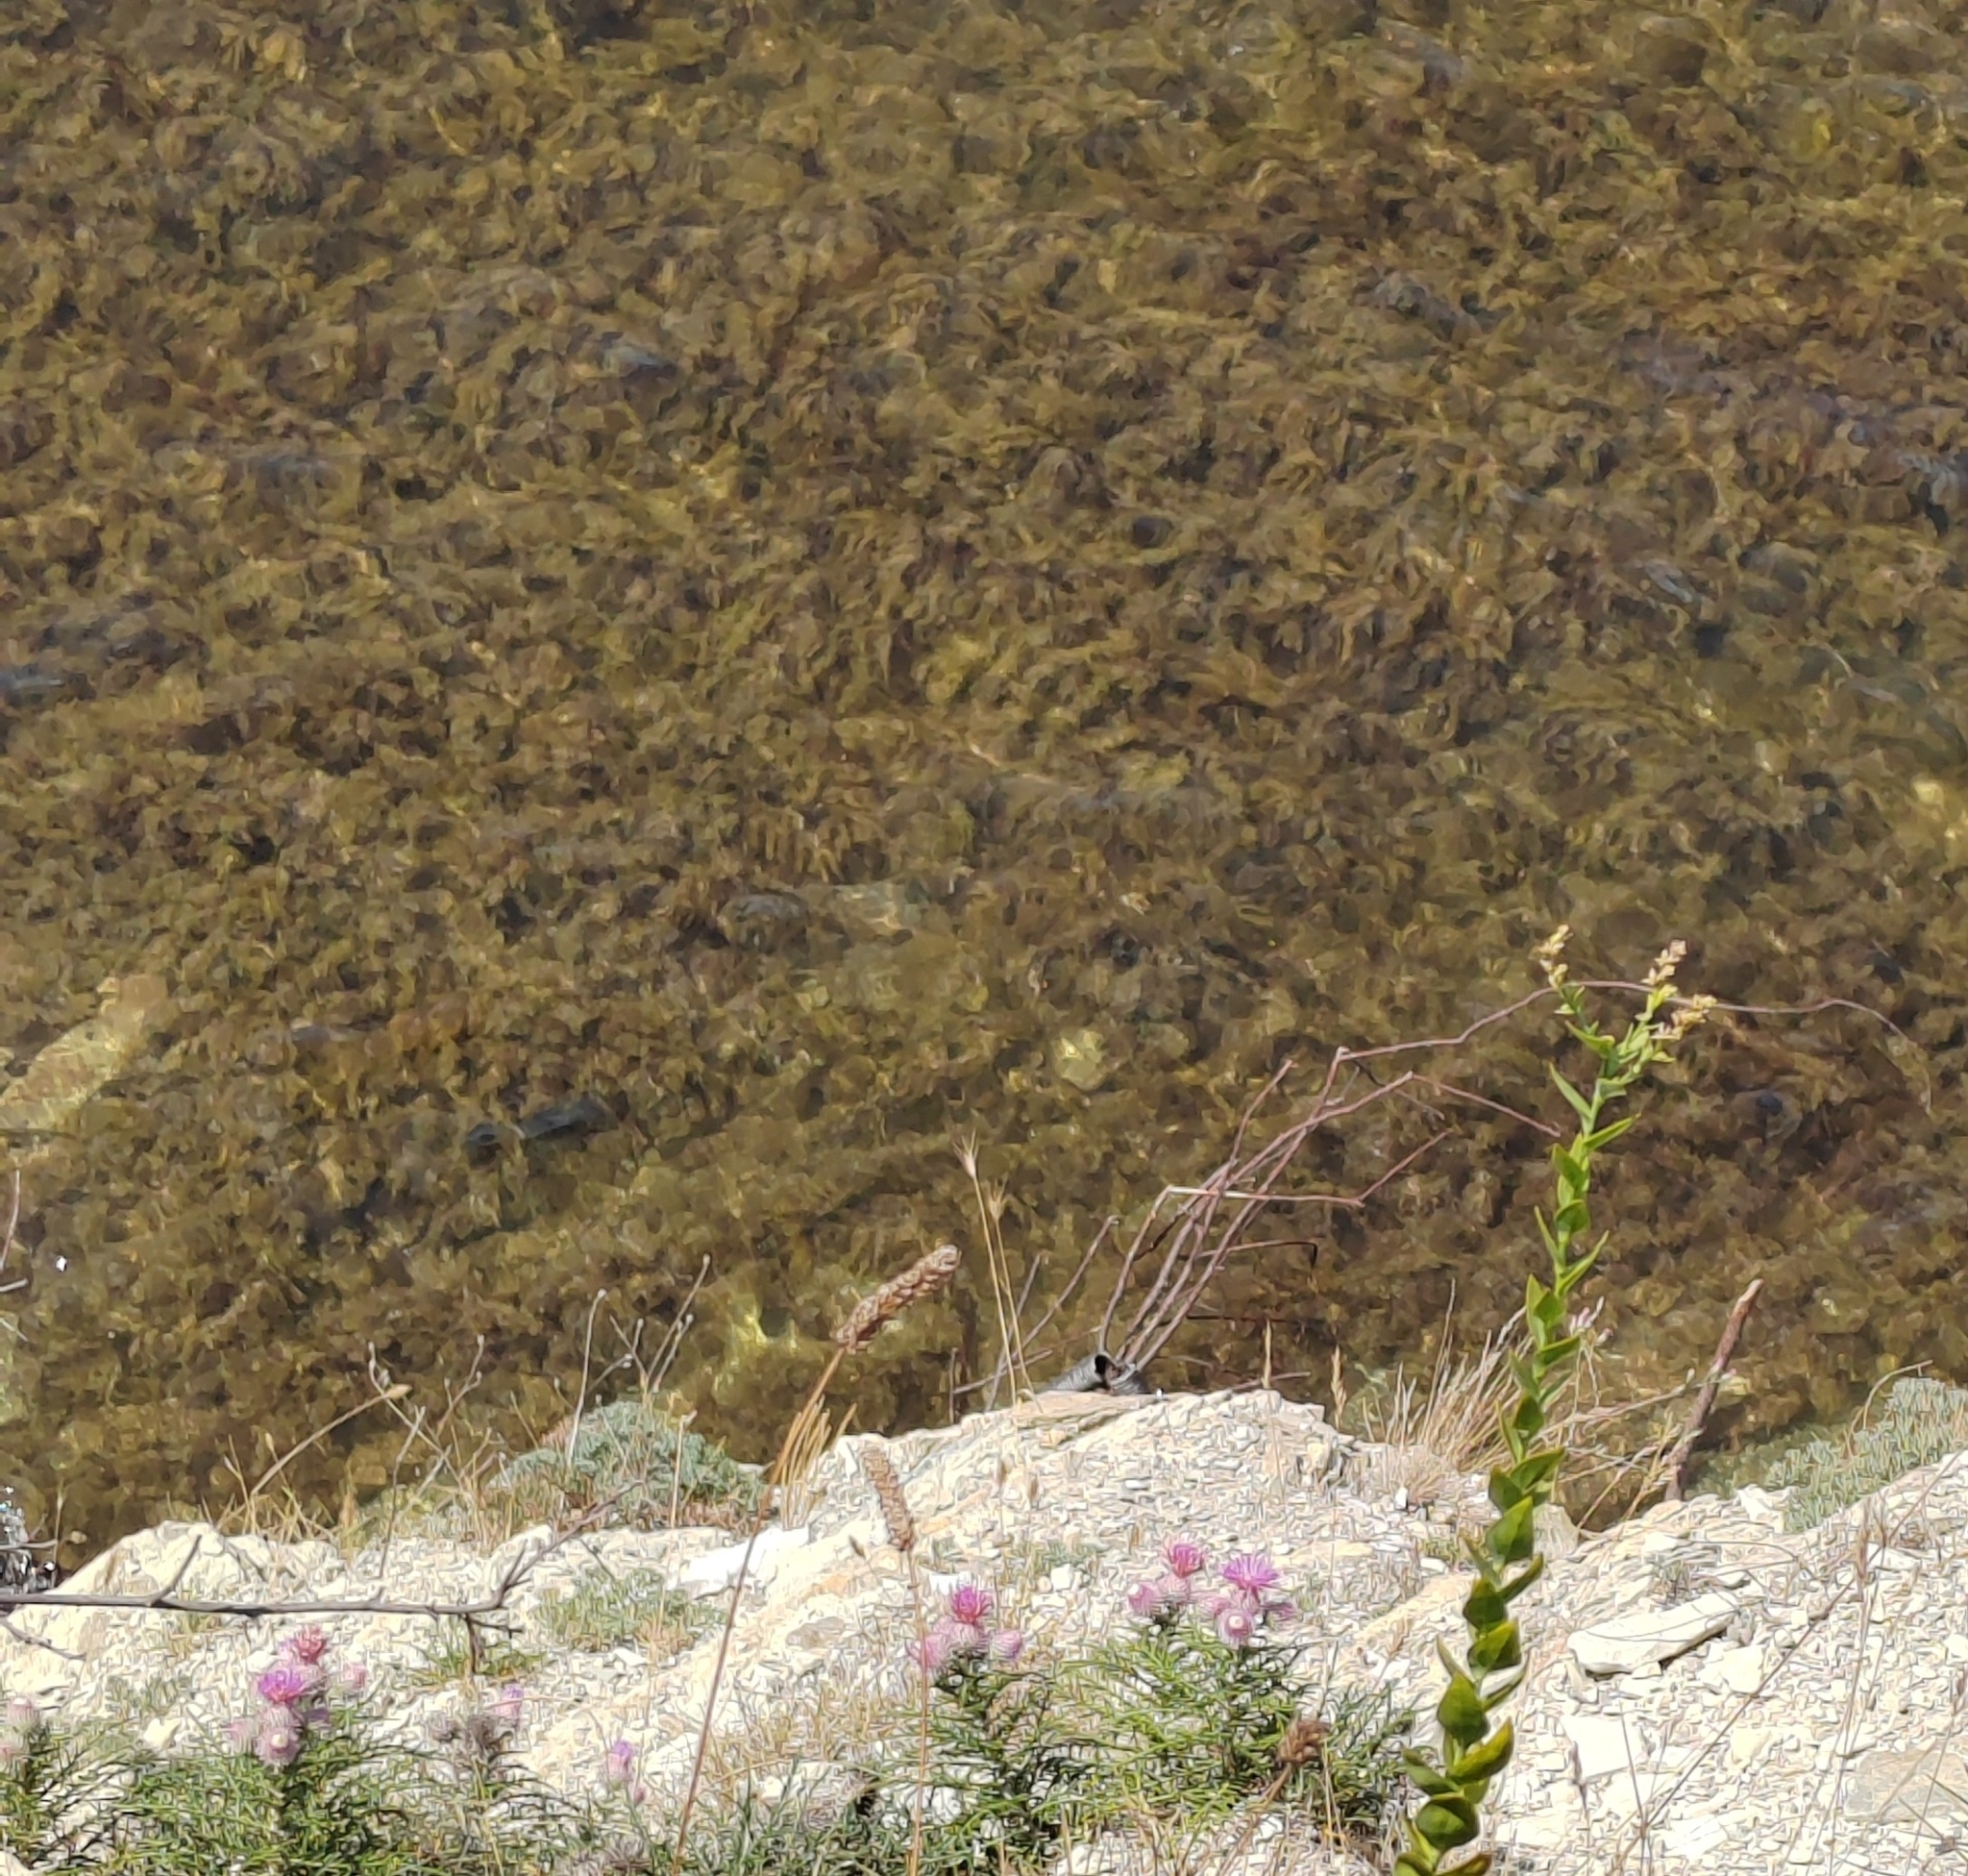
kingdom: Plantae
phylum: Tracheophyta
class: Magnoliopsida
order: Asterales
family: Asteraceae
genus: Ptilostemon
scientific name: Ptilostemon echinocephalus
